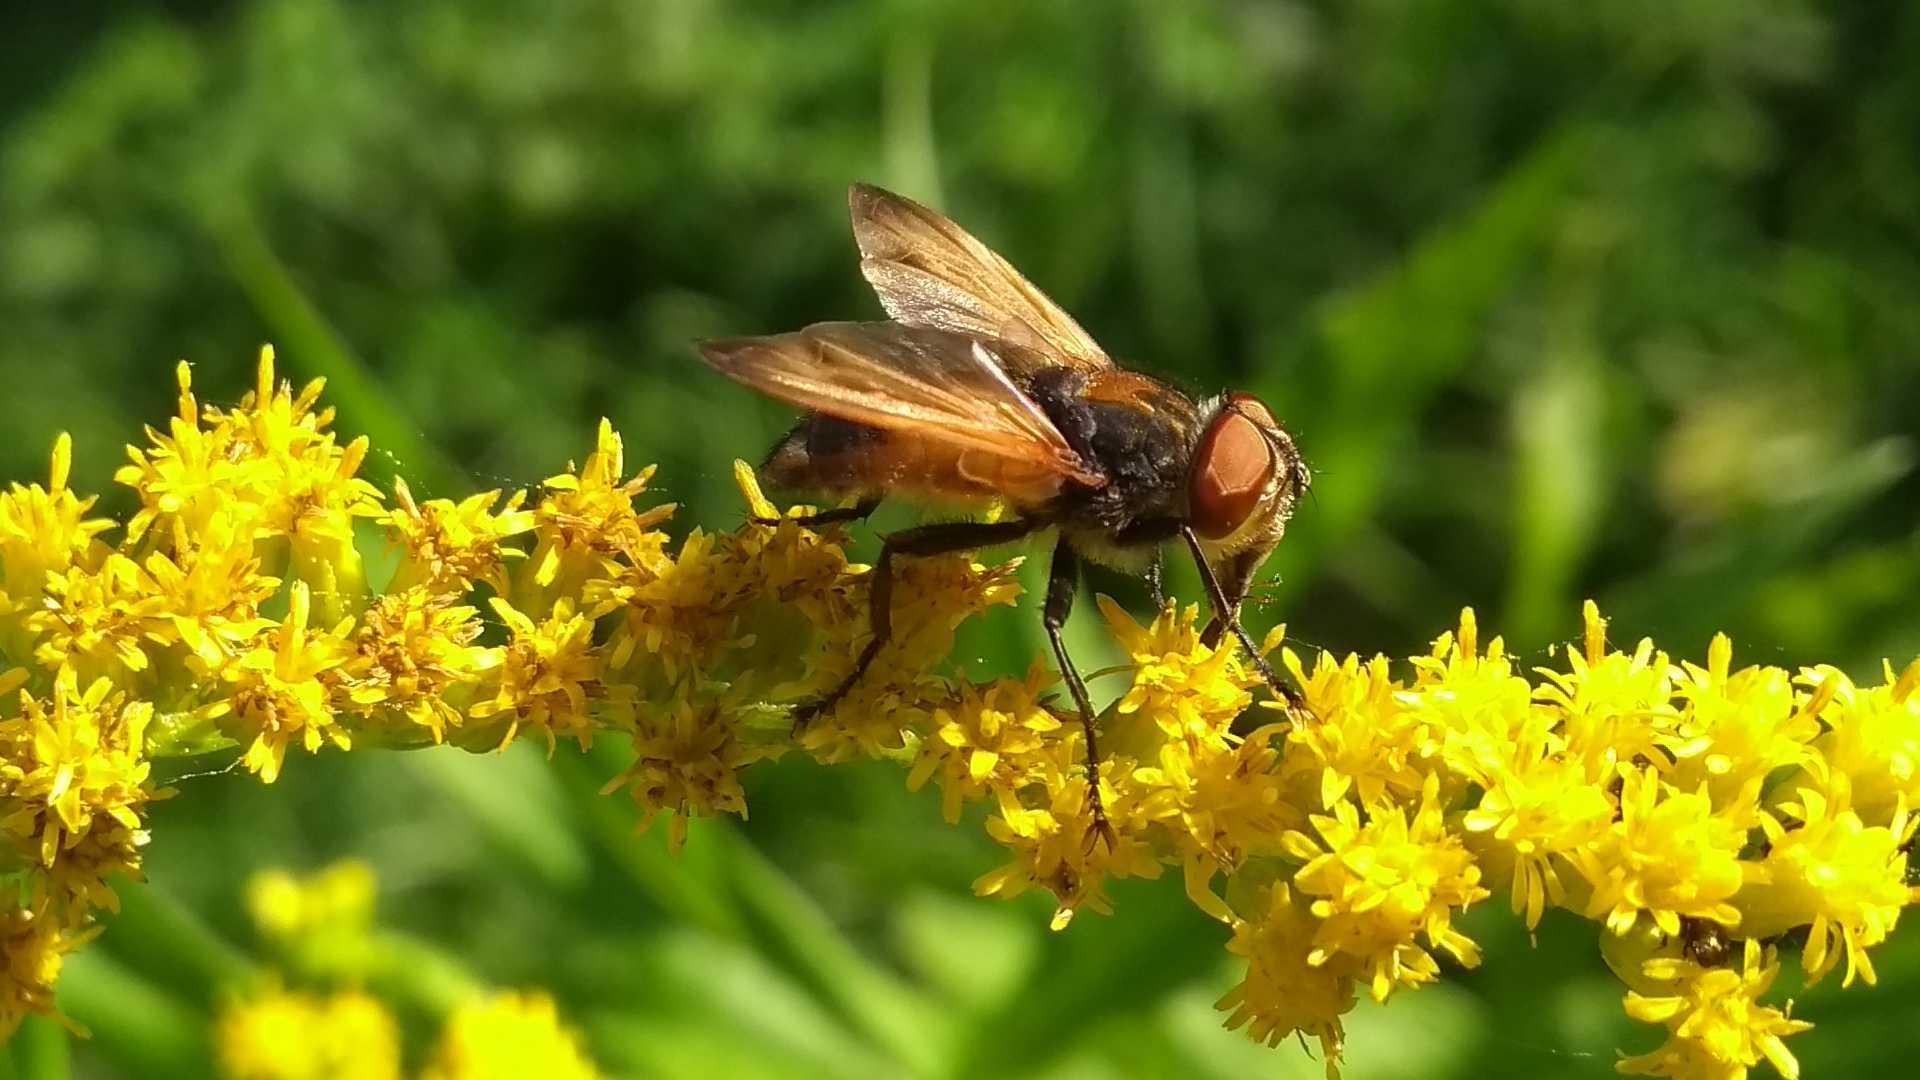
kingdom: Animalia
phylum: Arthropoda
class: Insecta
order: Diptera
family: Tachinidae
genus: Phasia
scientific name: Phasia aurigera
